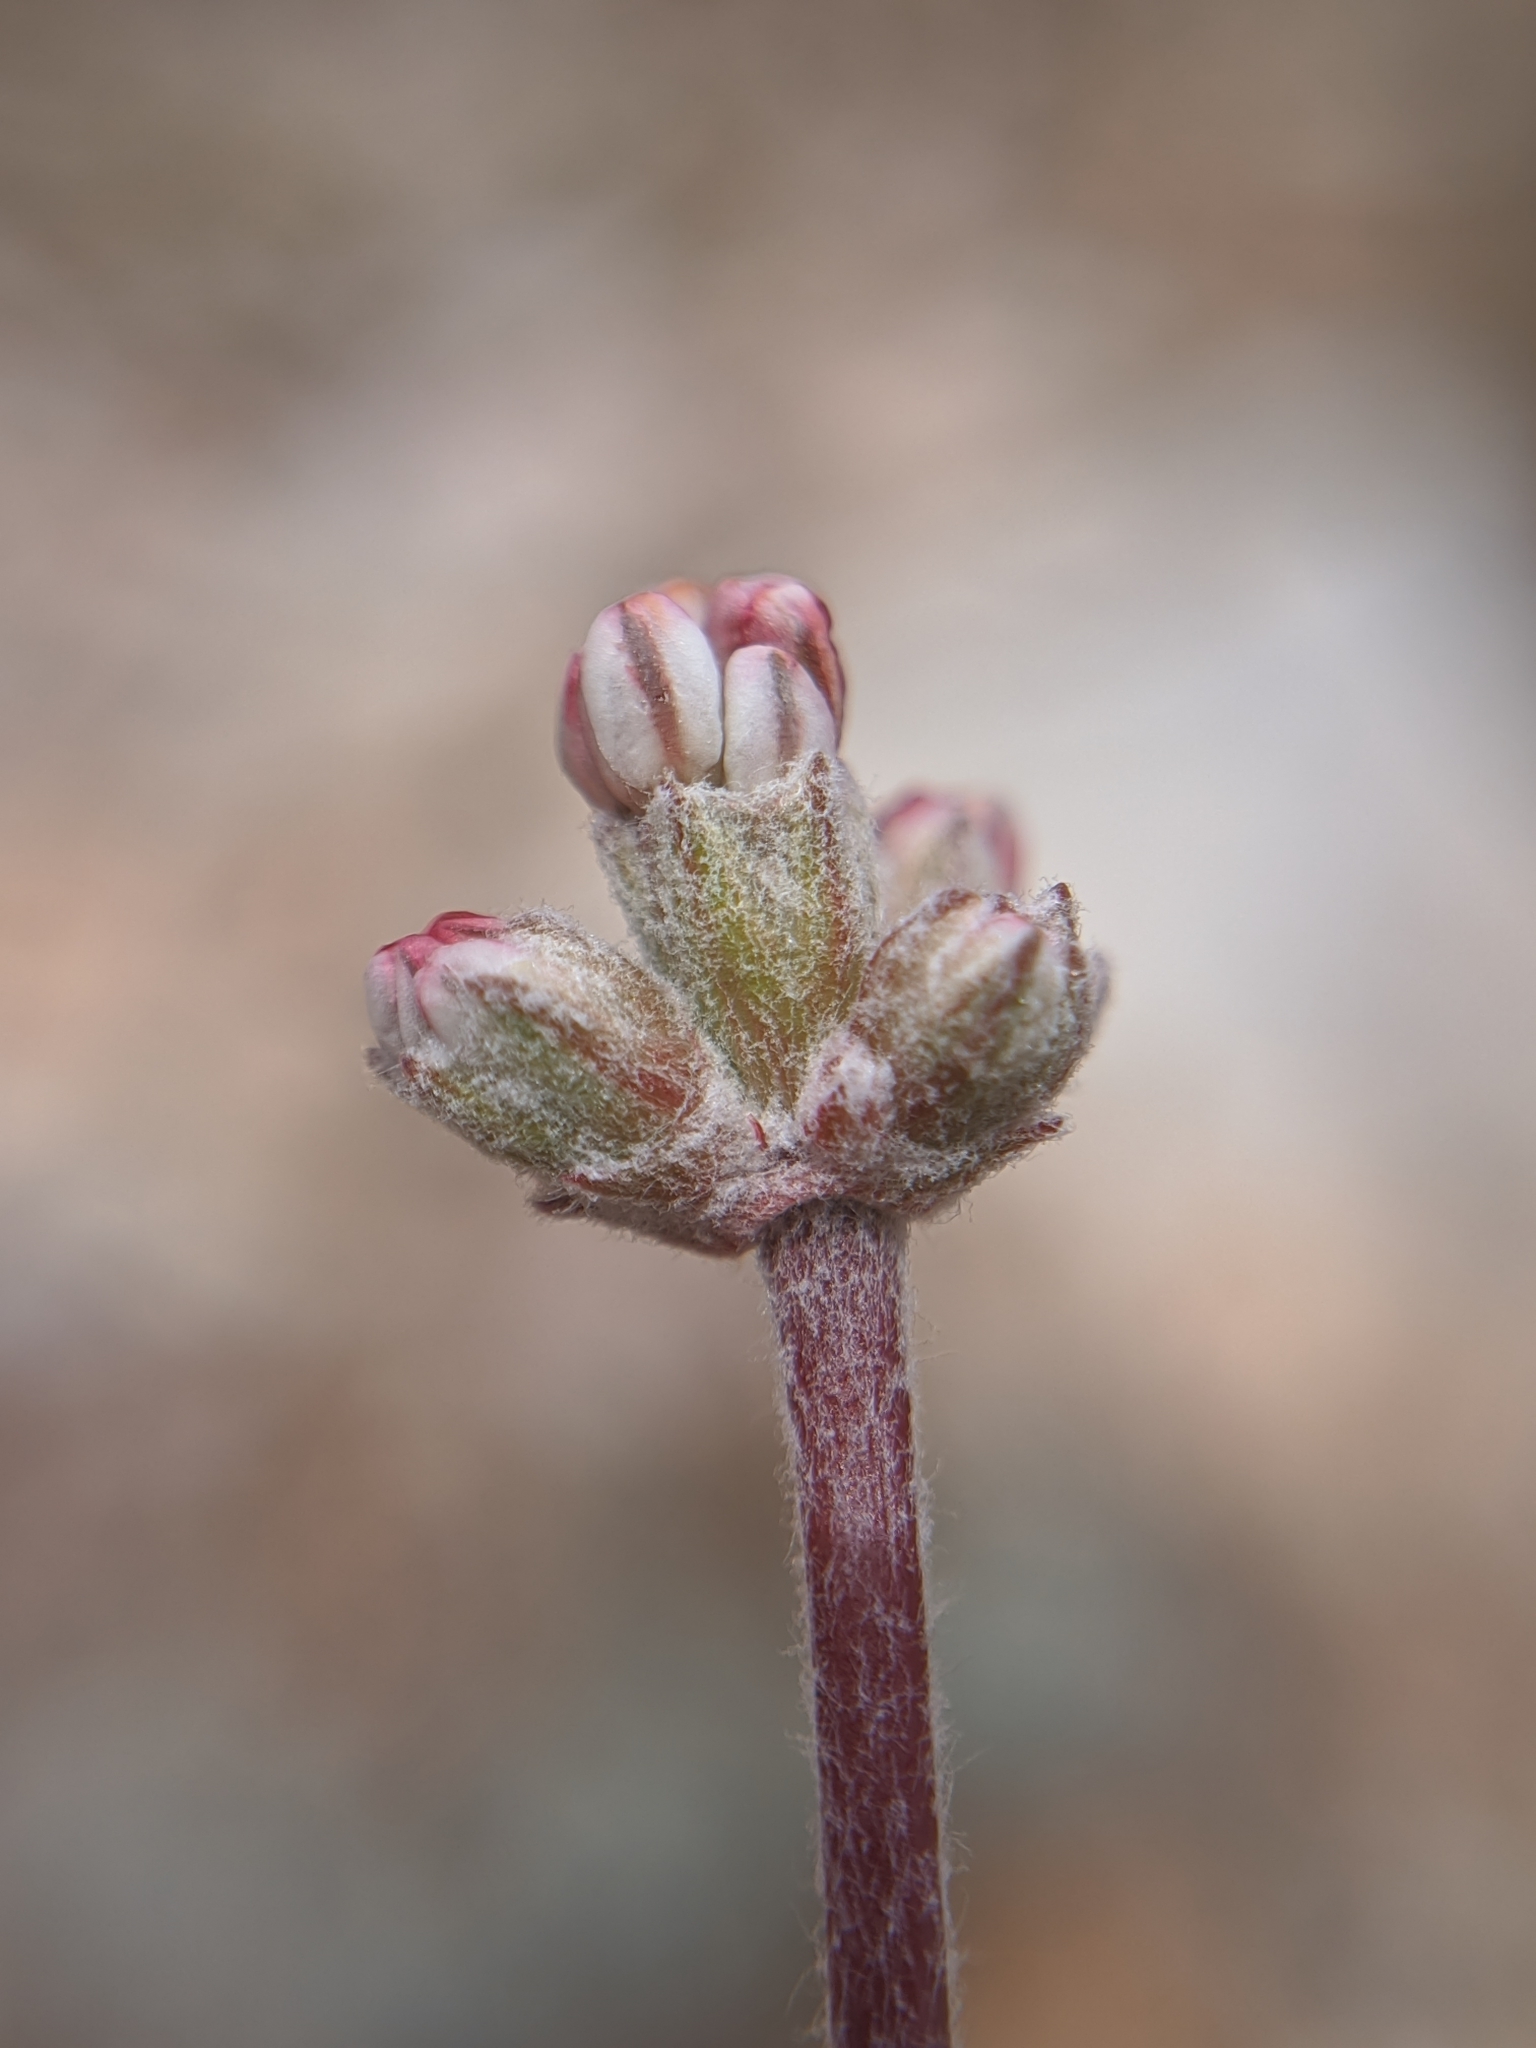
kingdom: Plantae
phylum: Tracheophyta
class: Magnoliopsida
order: Caryophyllales
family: Polygonaceae
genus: Eriogonum
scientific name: Eriogonum kennedyi
